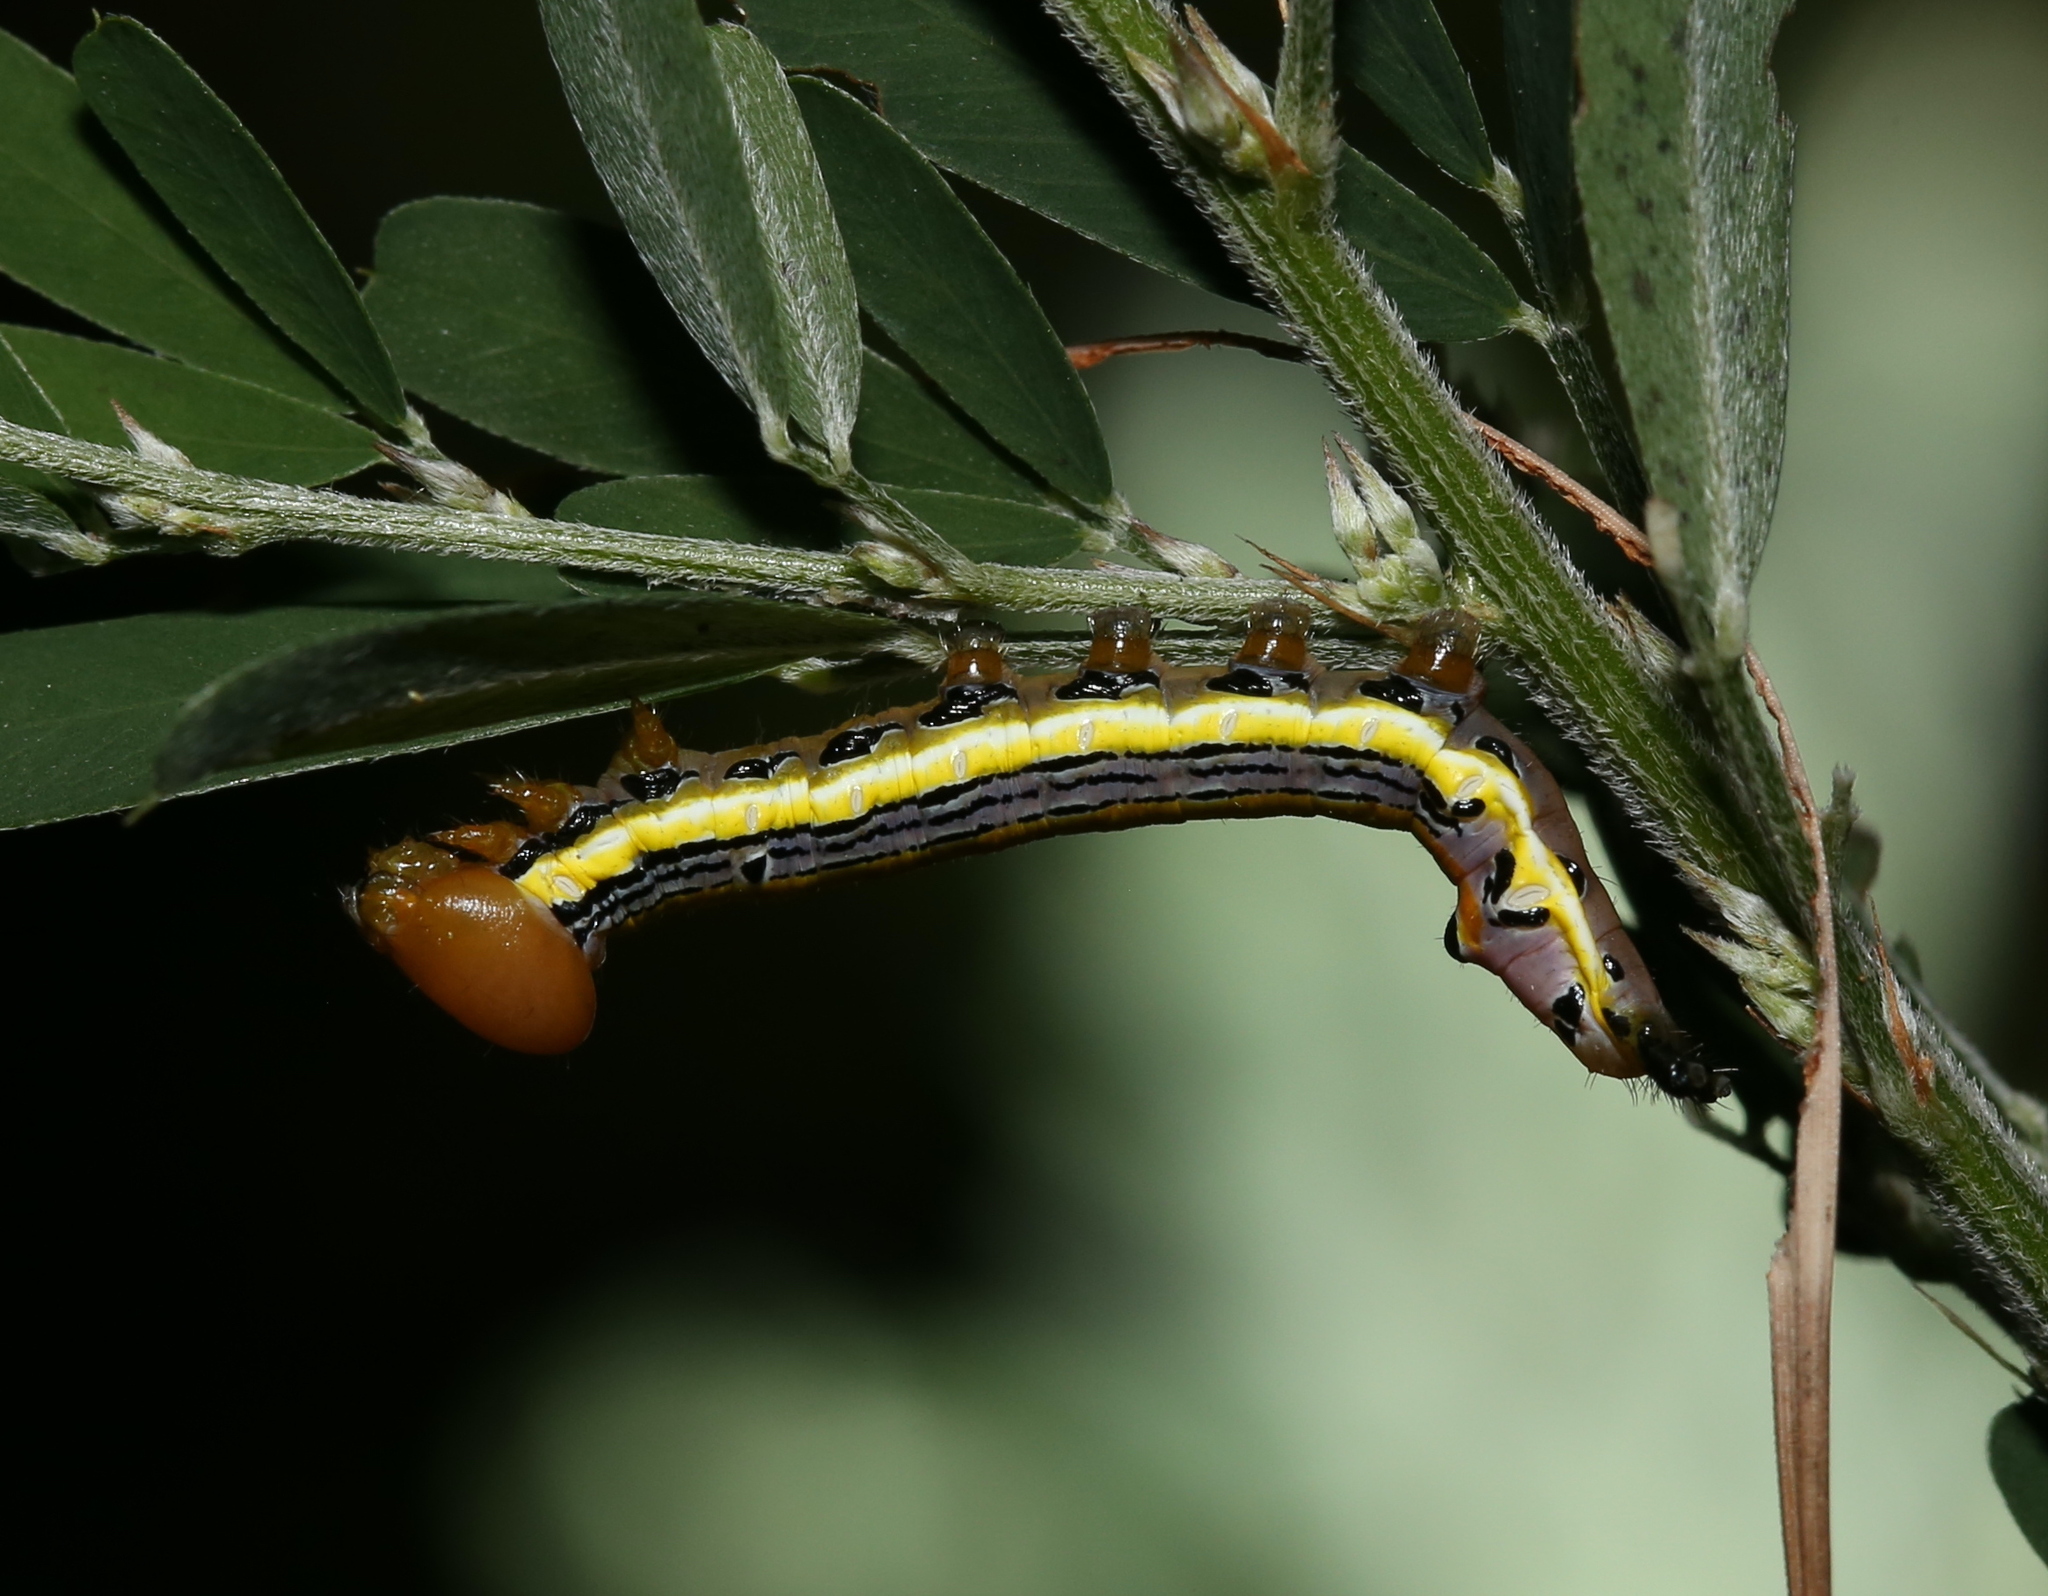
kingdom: Animalia
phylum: Arthropoda
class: Insecta
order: Lepidoptera
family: Notodontidae
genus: Dasylophia
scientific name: Dasylophia anguina
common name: Black-spotted prominent
